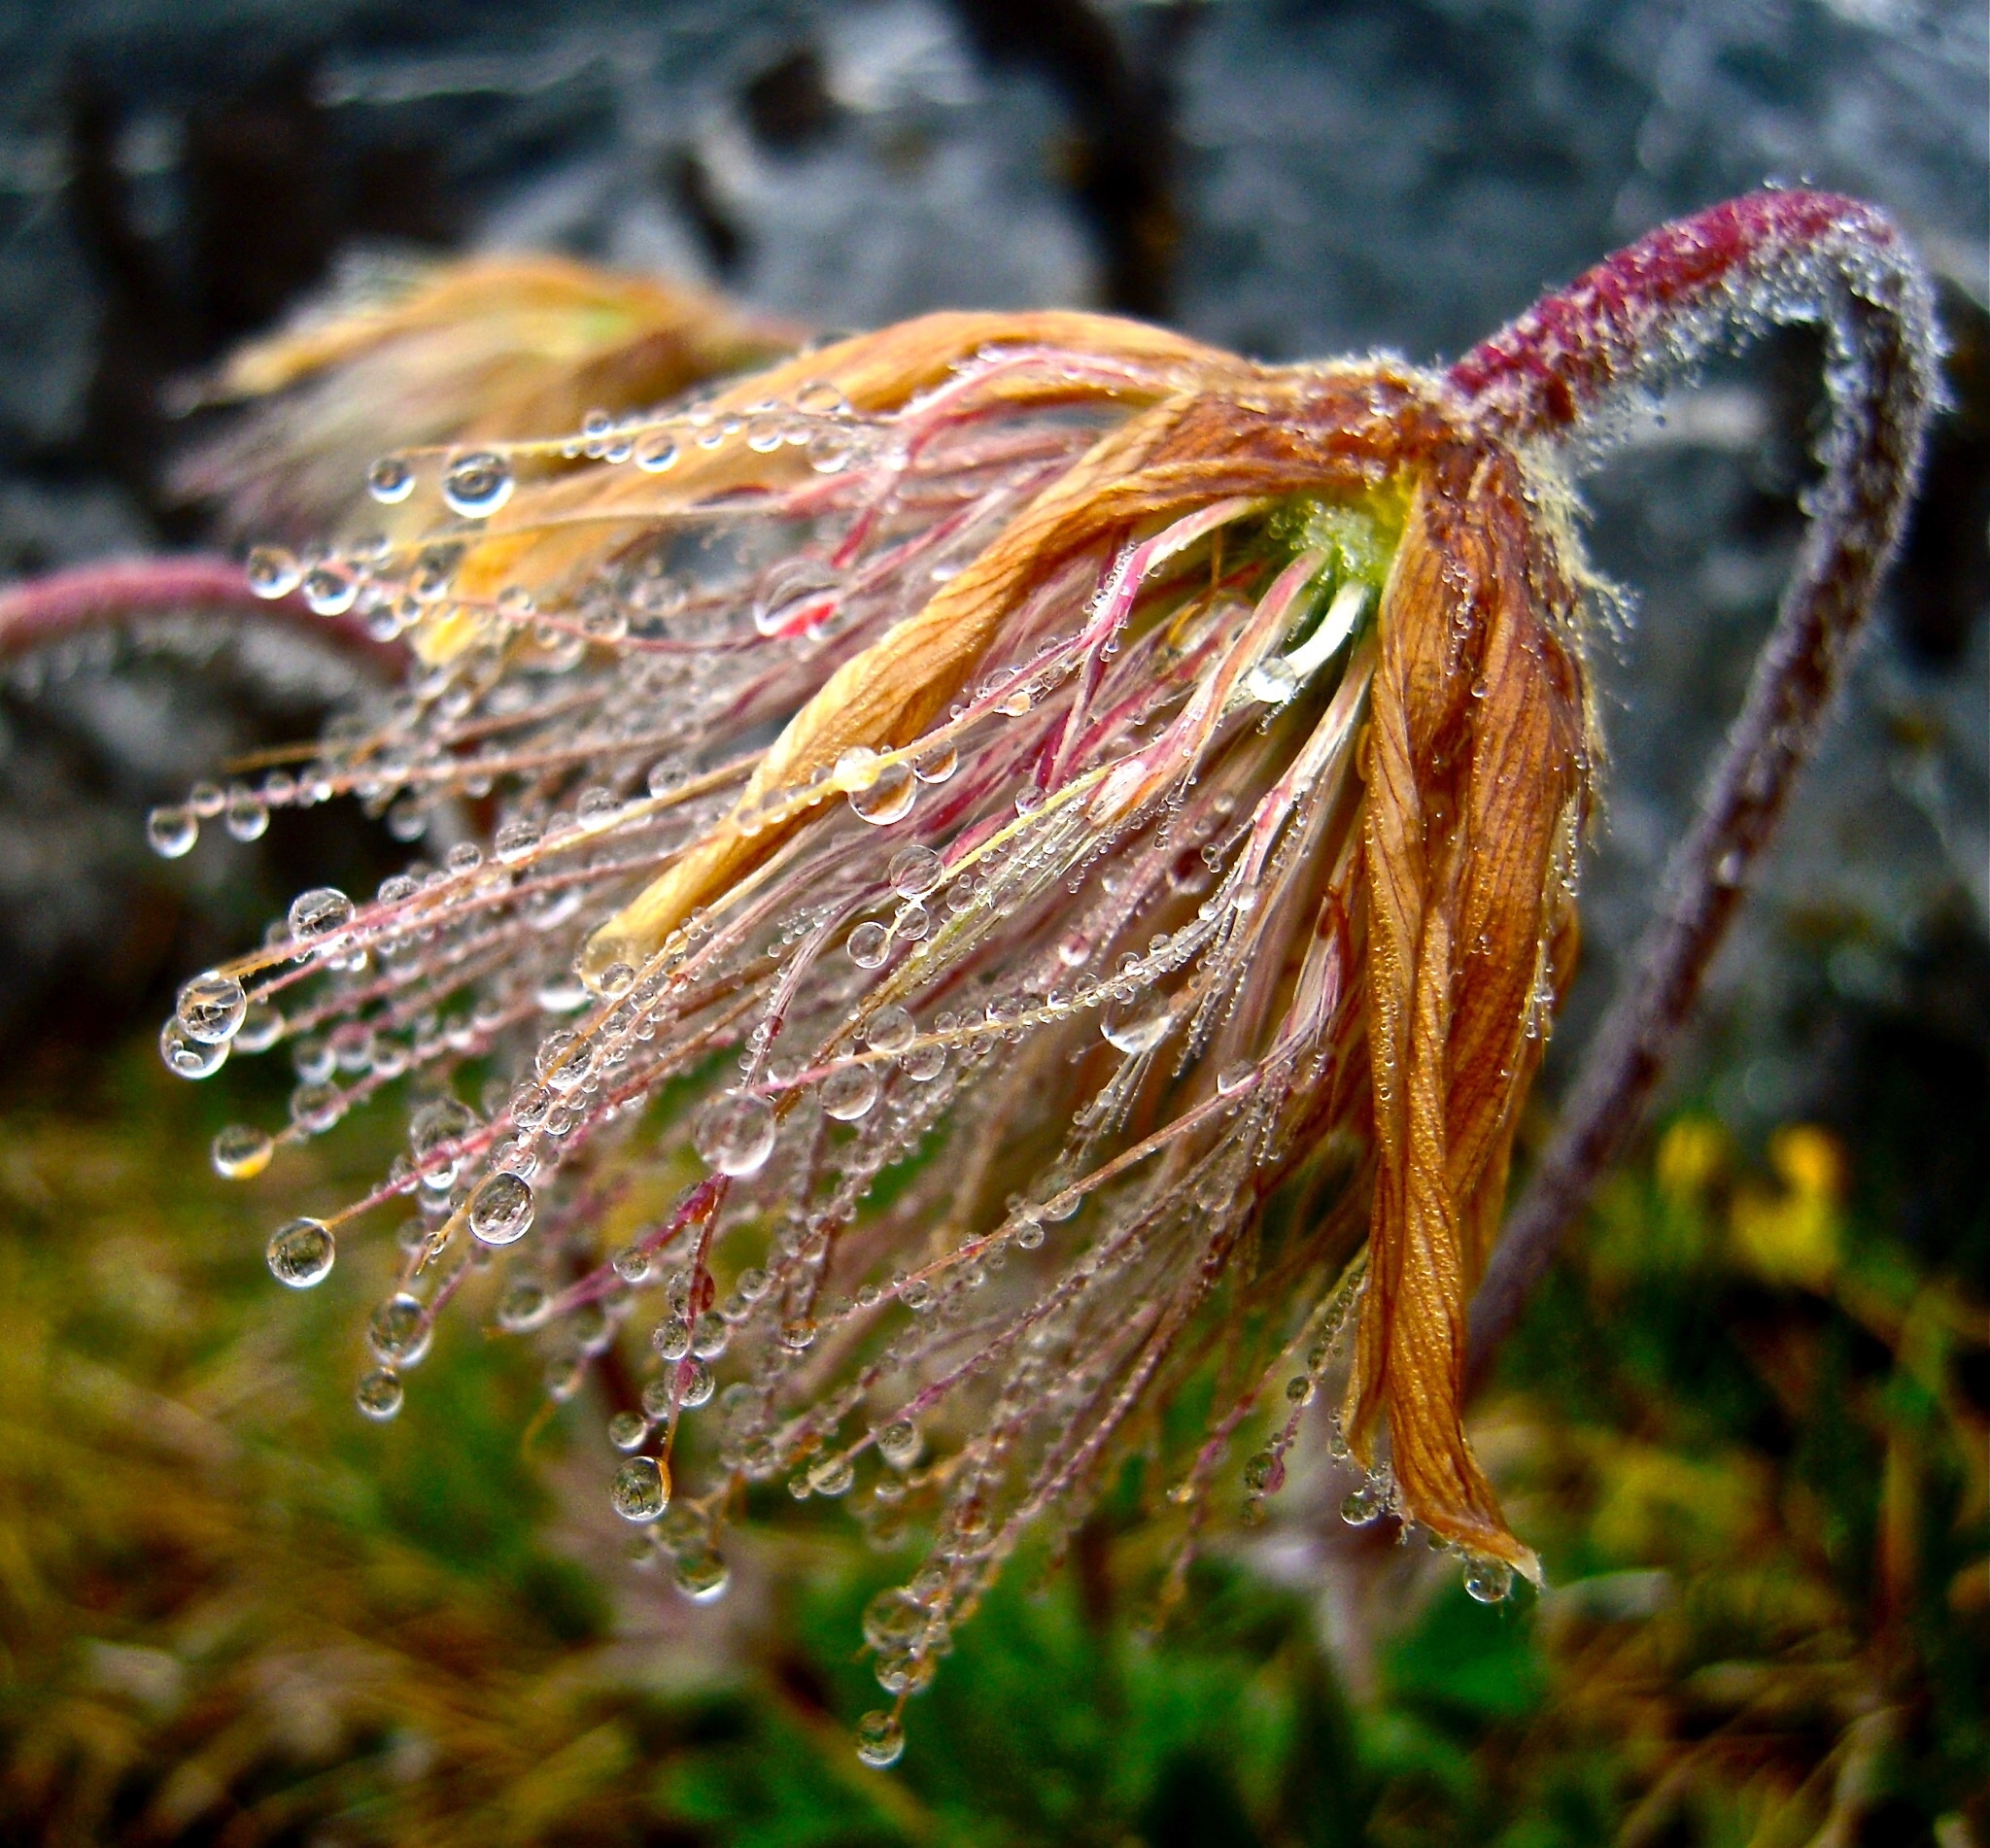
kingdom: Plantae
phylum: Tracheophyta
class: Magnoliopsida
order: Ranunculales
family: Ranunculaceae
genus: Pulsatilla
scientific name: Pulsatilla vernalis
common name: Spring pasque flower
